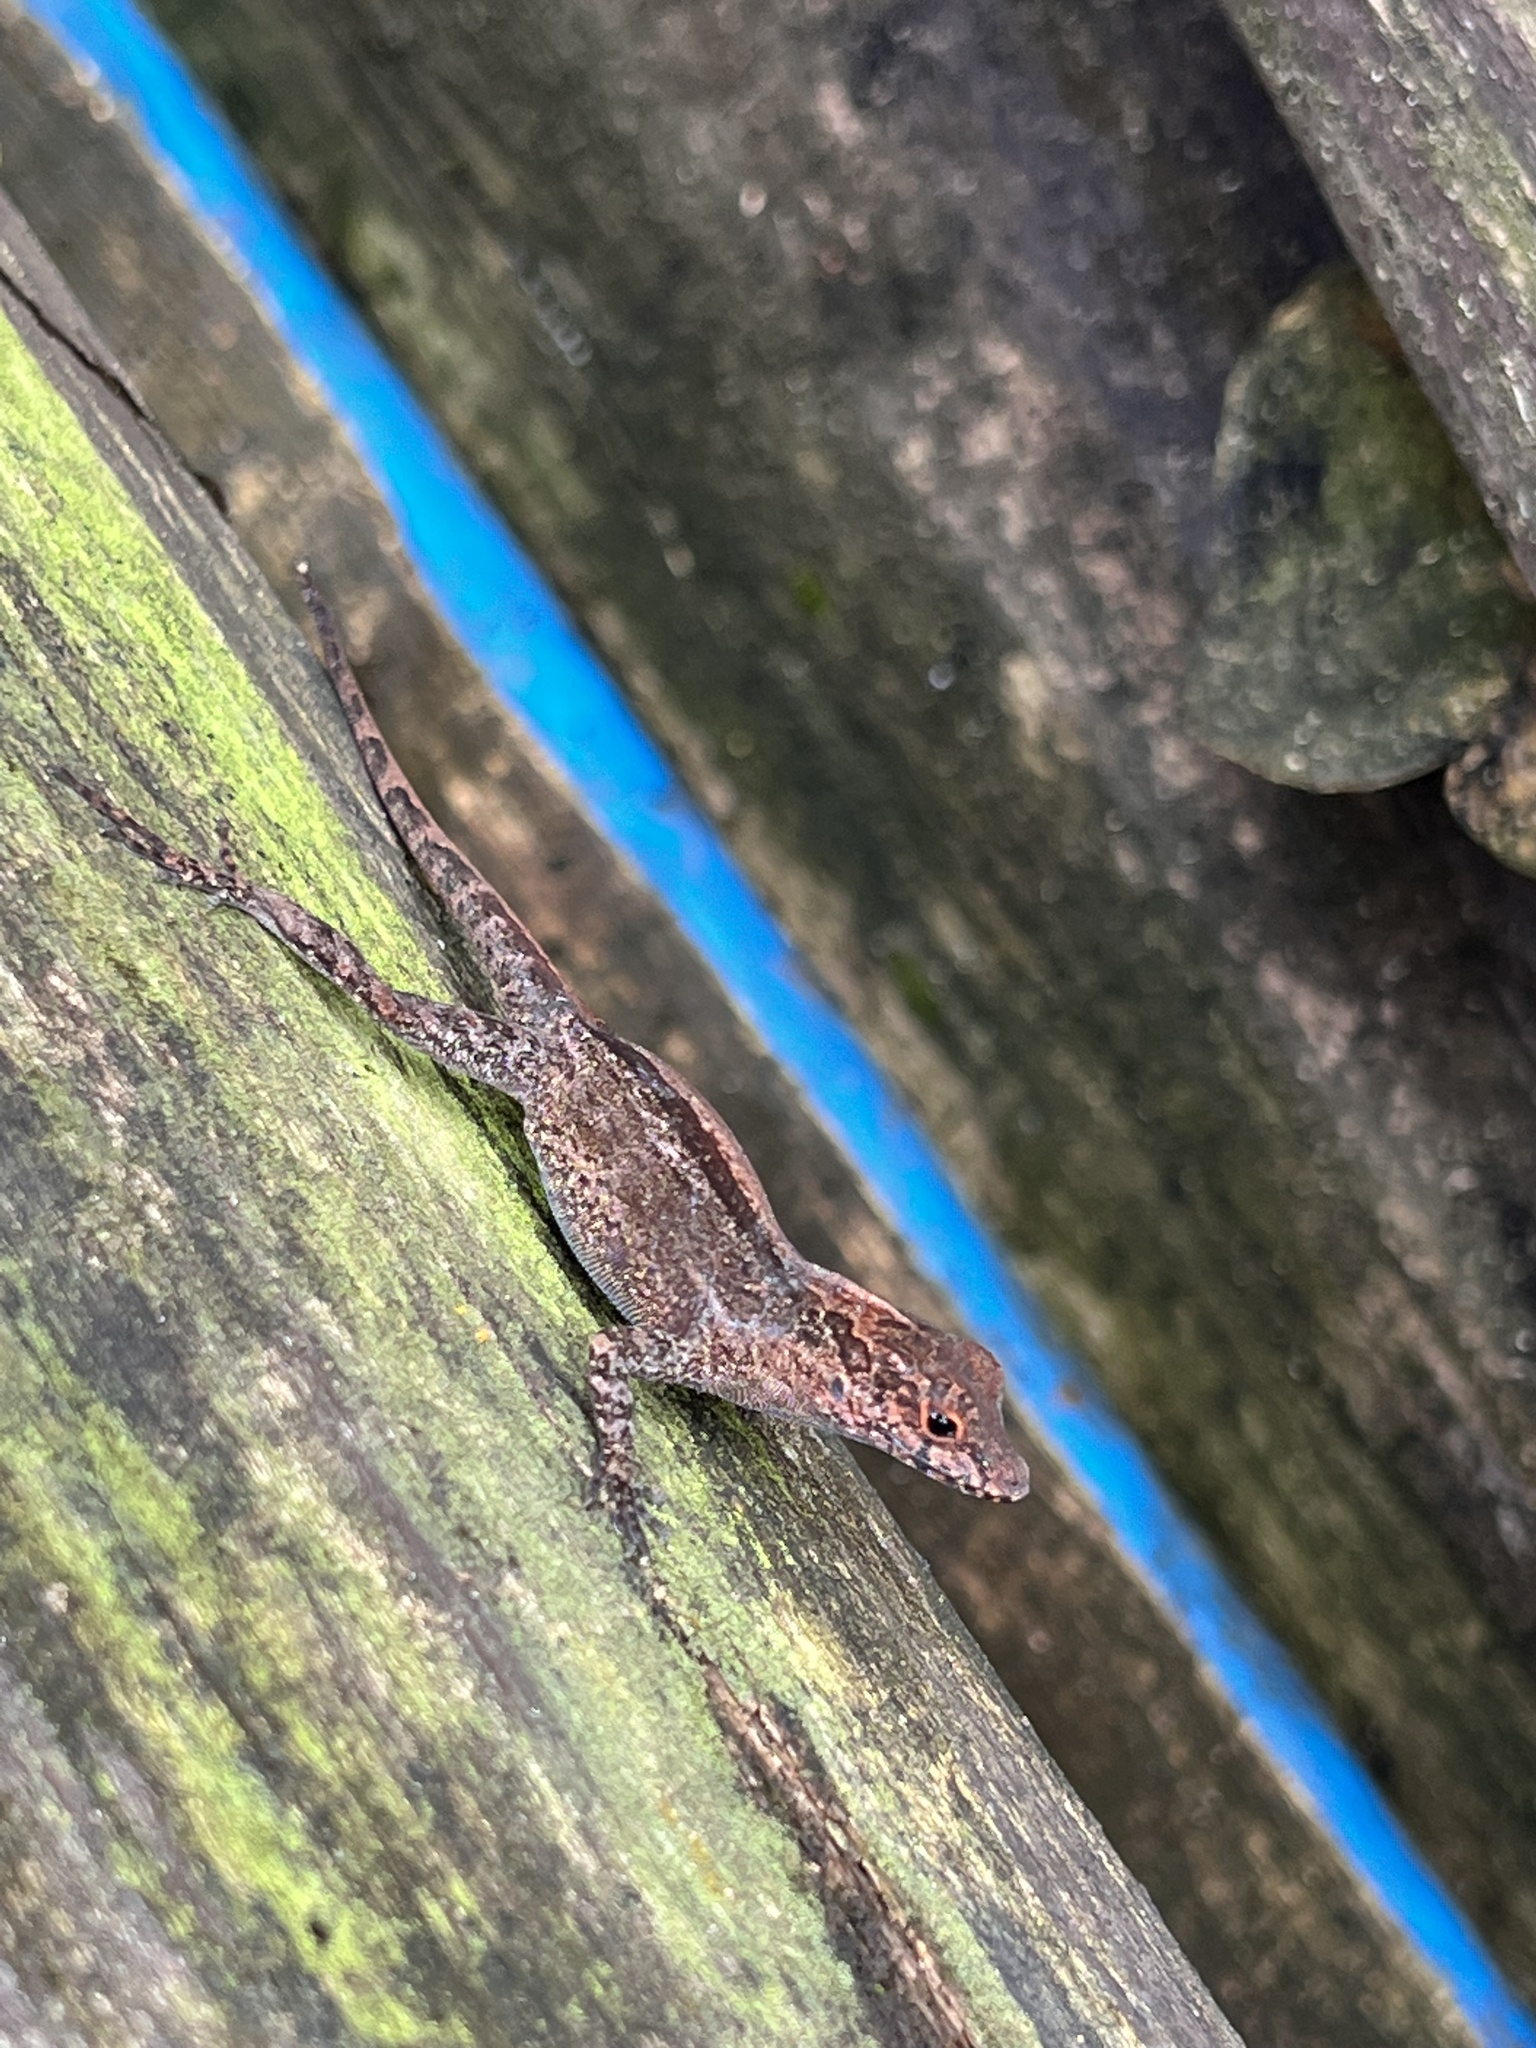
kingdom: Animalia
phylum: Chordata
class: Squamata
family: Dactyloidae
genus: Anolis
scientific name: Anolis cristatellus
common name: Crested anole
